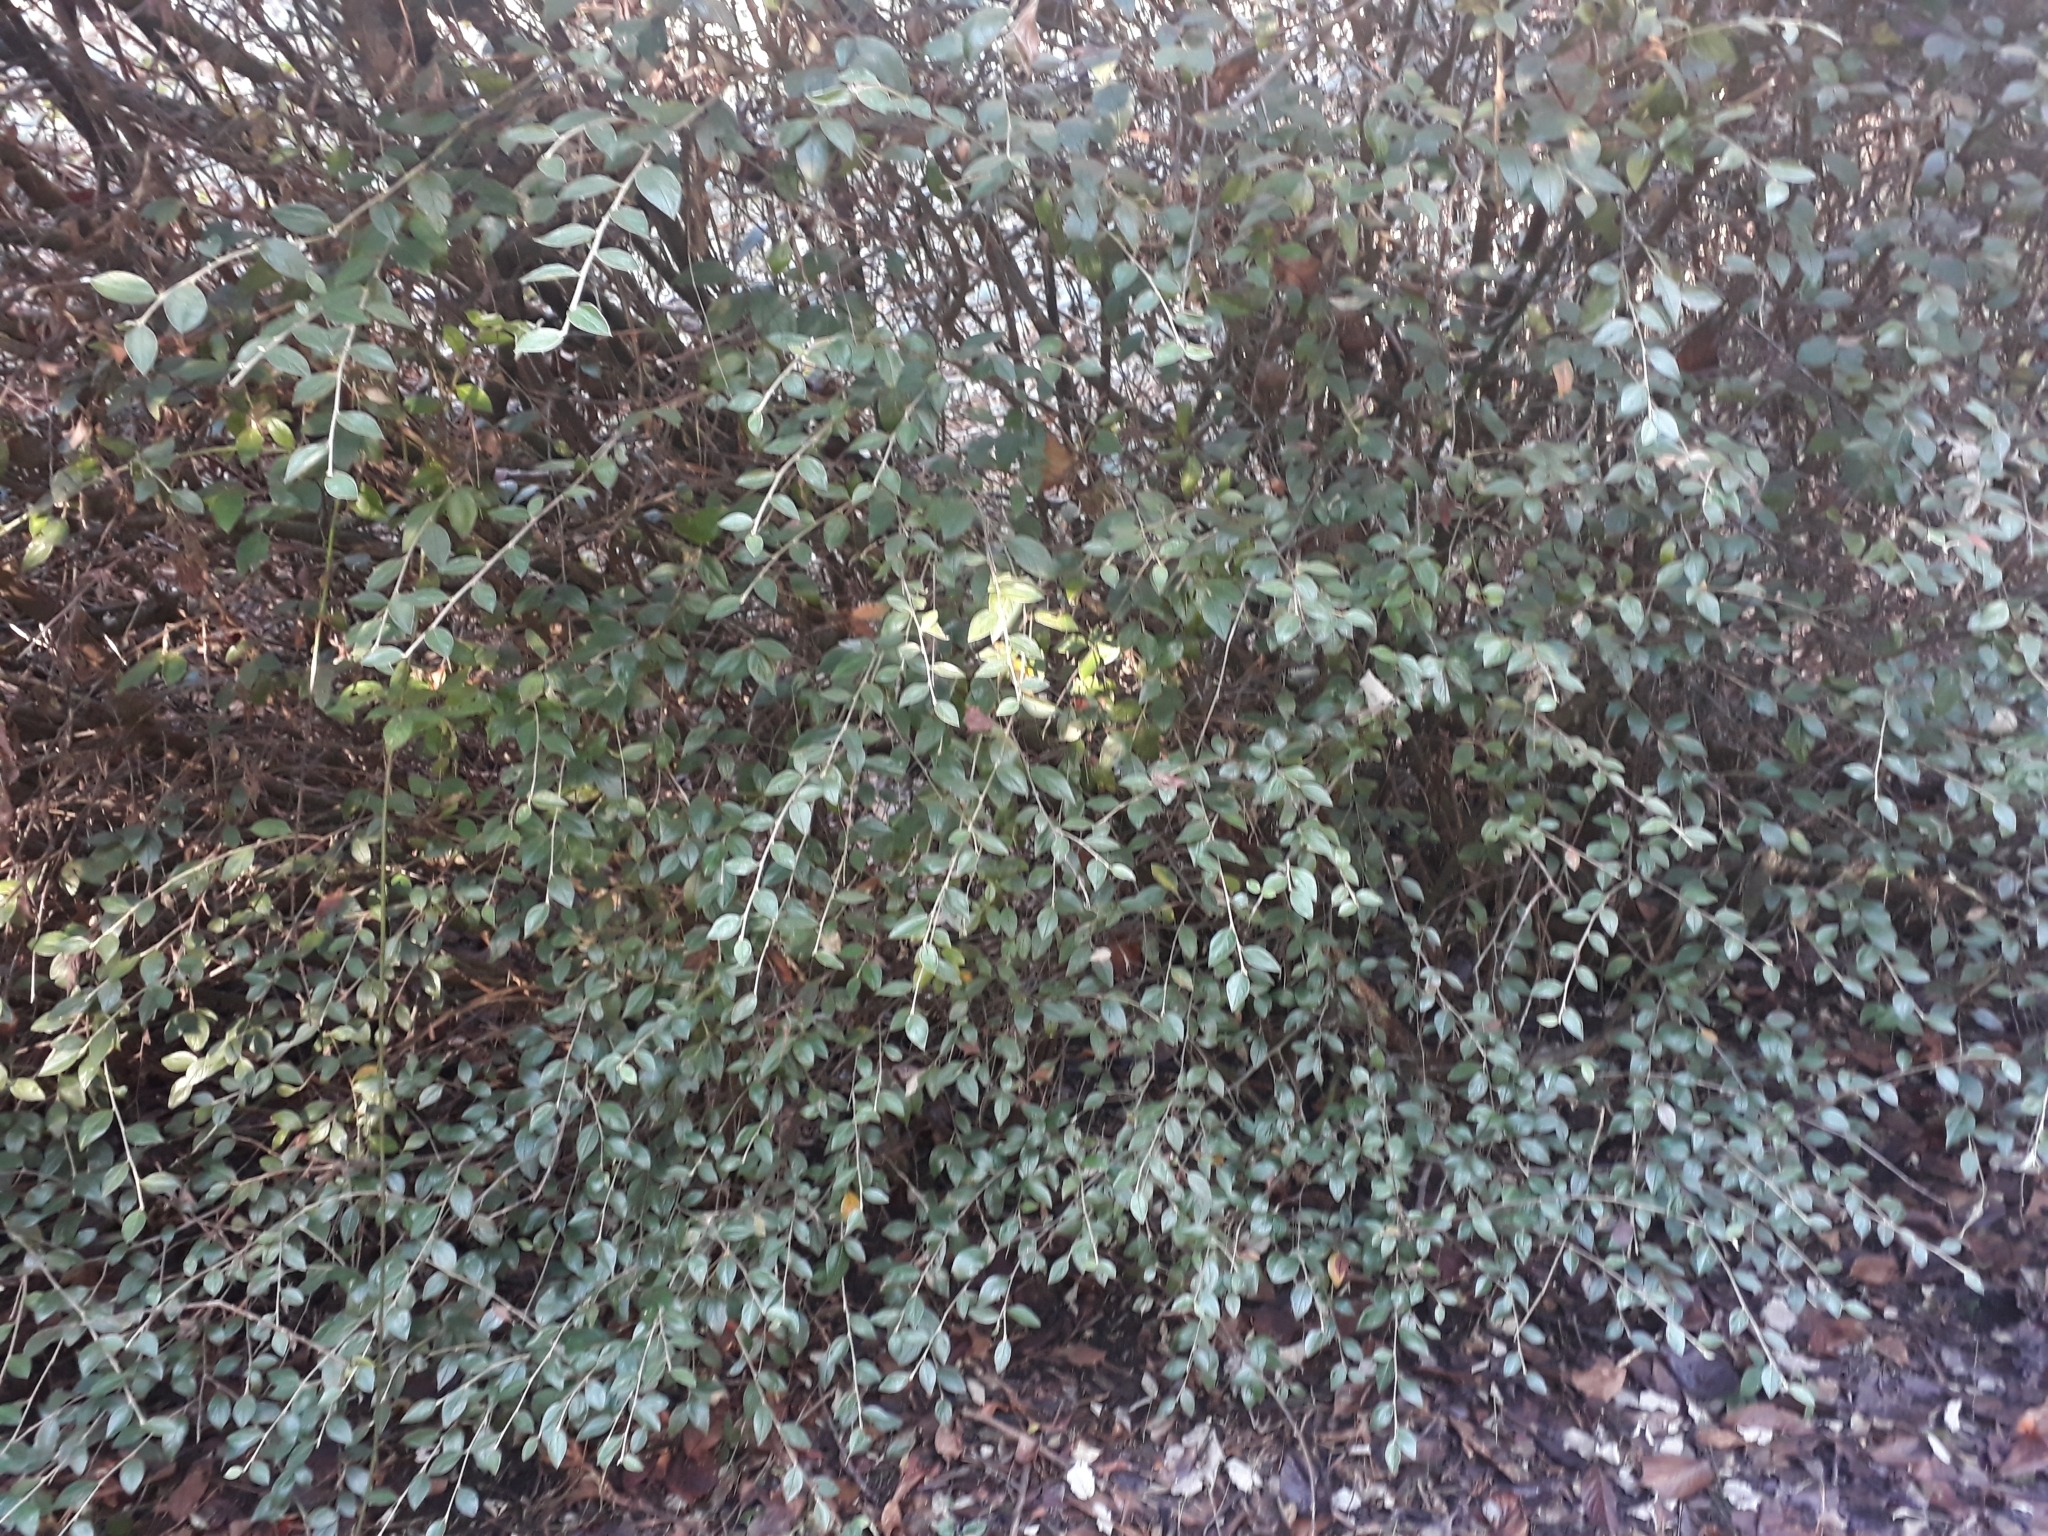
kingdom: Plantae
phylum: Tracheophyta
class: Magnoliopsida
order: Rosales
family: Rosaceae
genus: Cotoneaster
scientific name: Cotoneaster franchetii
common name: Franchet's cotoneaster
